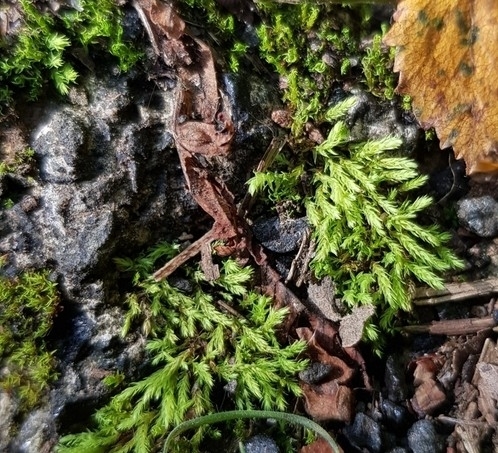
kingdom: Plantae
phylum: Bryophyta
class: Bryopsida
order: Bryales
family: Mniaceae
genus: Pohlia
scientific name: Pohlia wahlenbergii
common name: Wahlenberg's nodding moss
